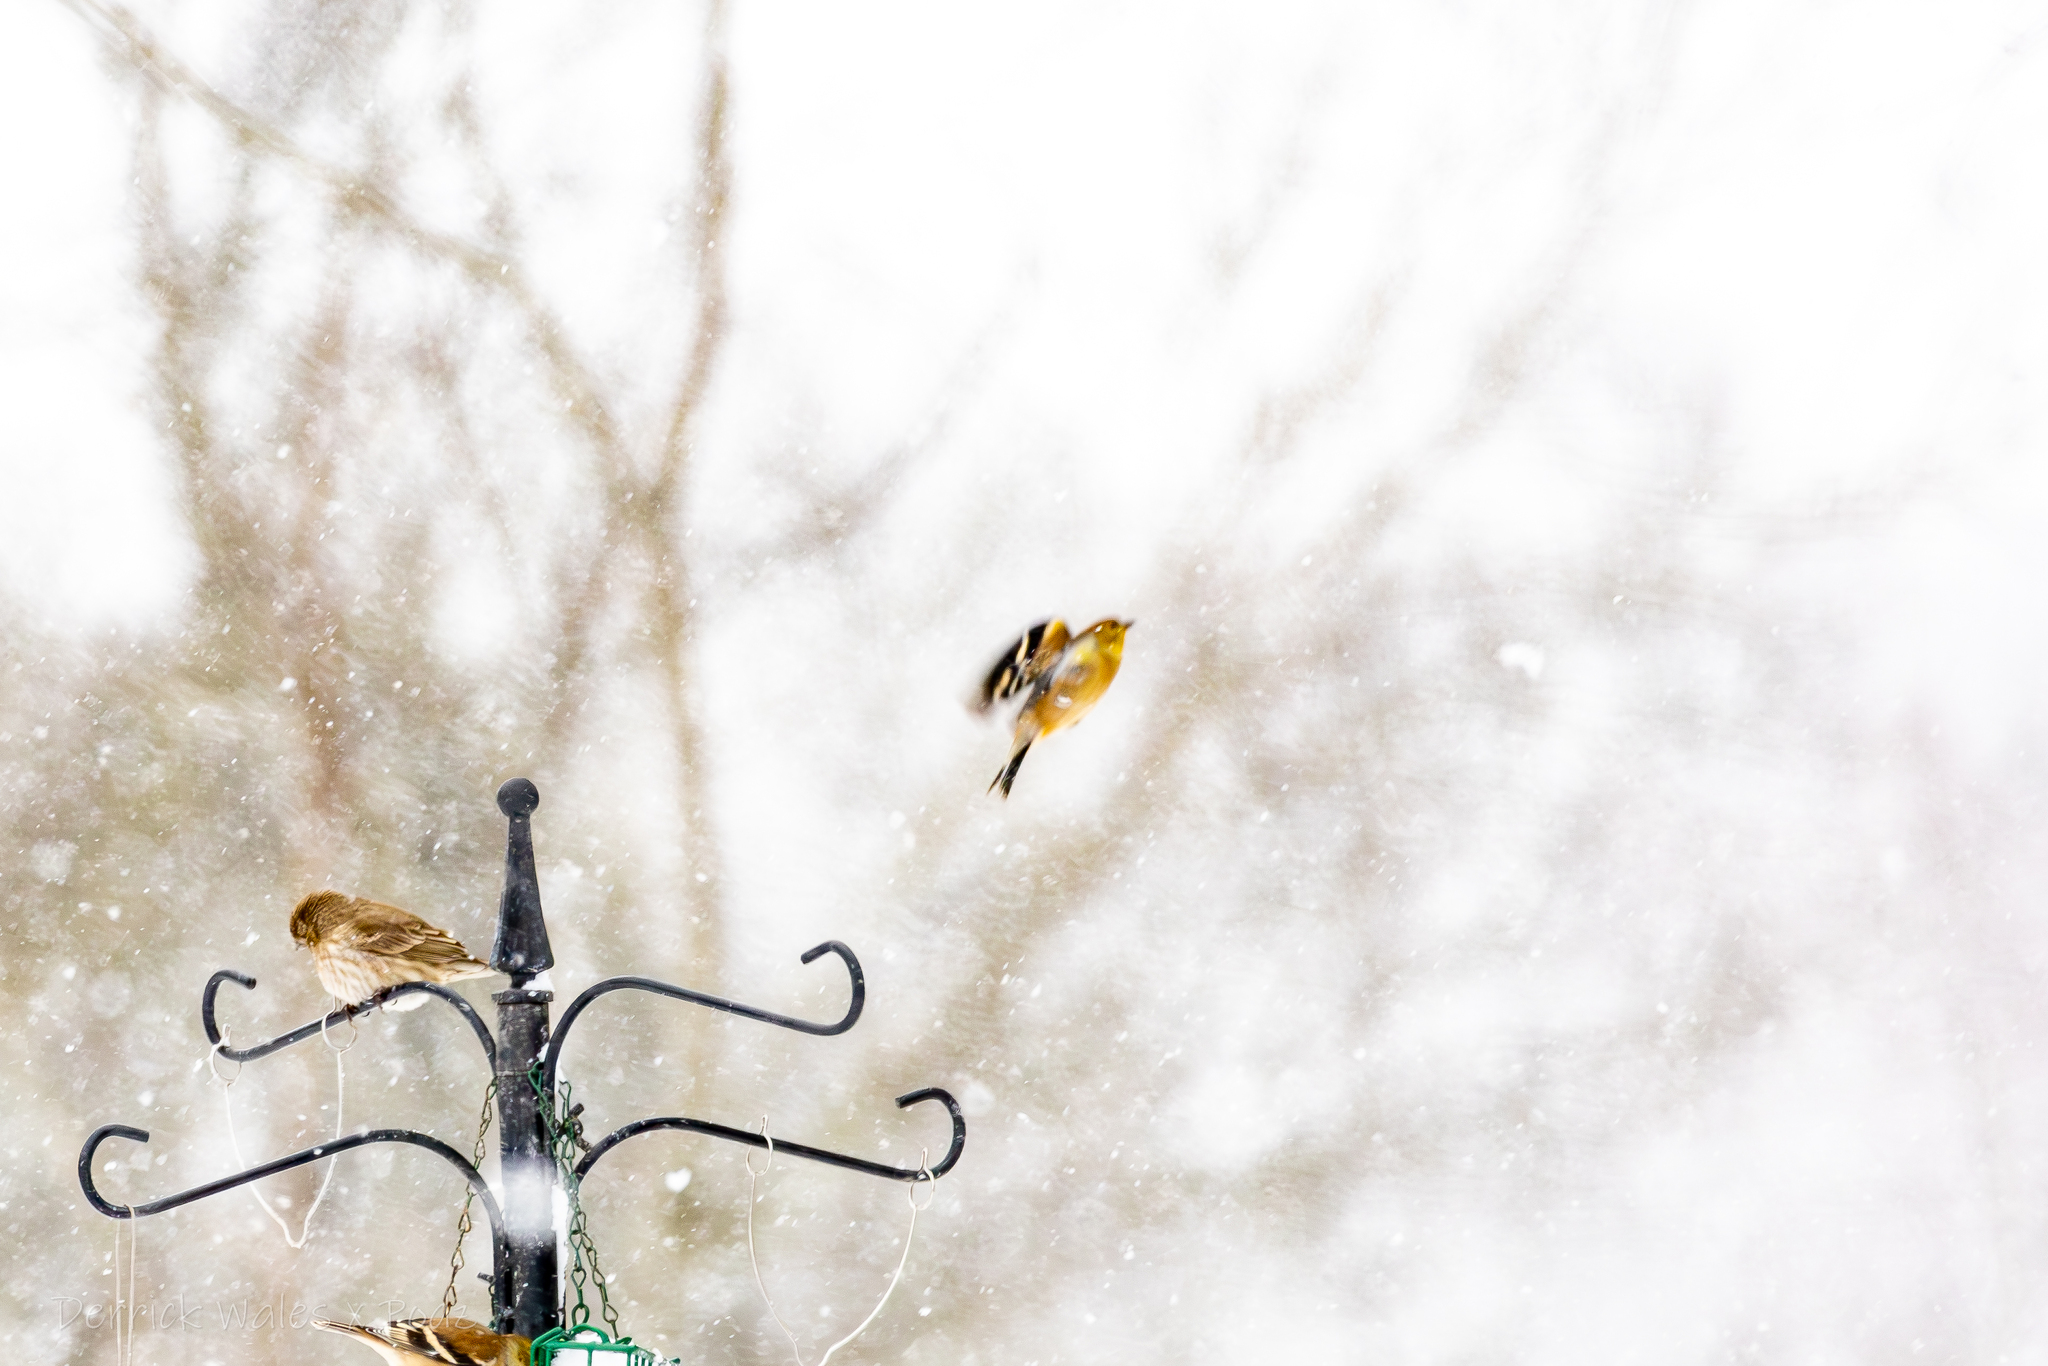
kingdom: Animalia
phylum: Chordata
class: Aves
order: Passeriformes
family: Fringillidae
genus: Spinus
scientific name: Spinus tristis
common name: American goldfinch
